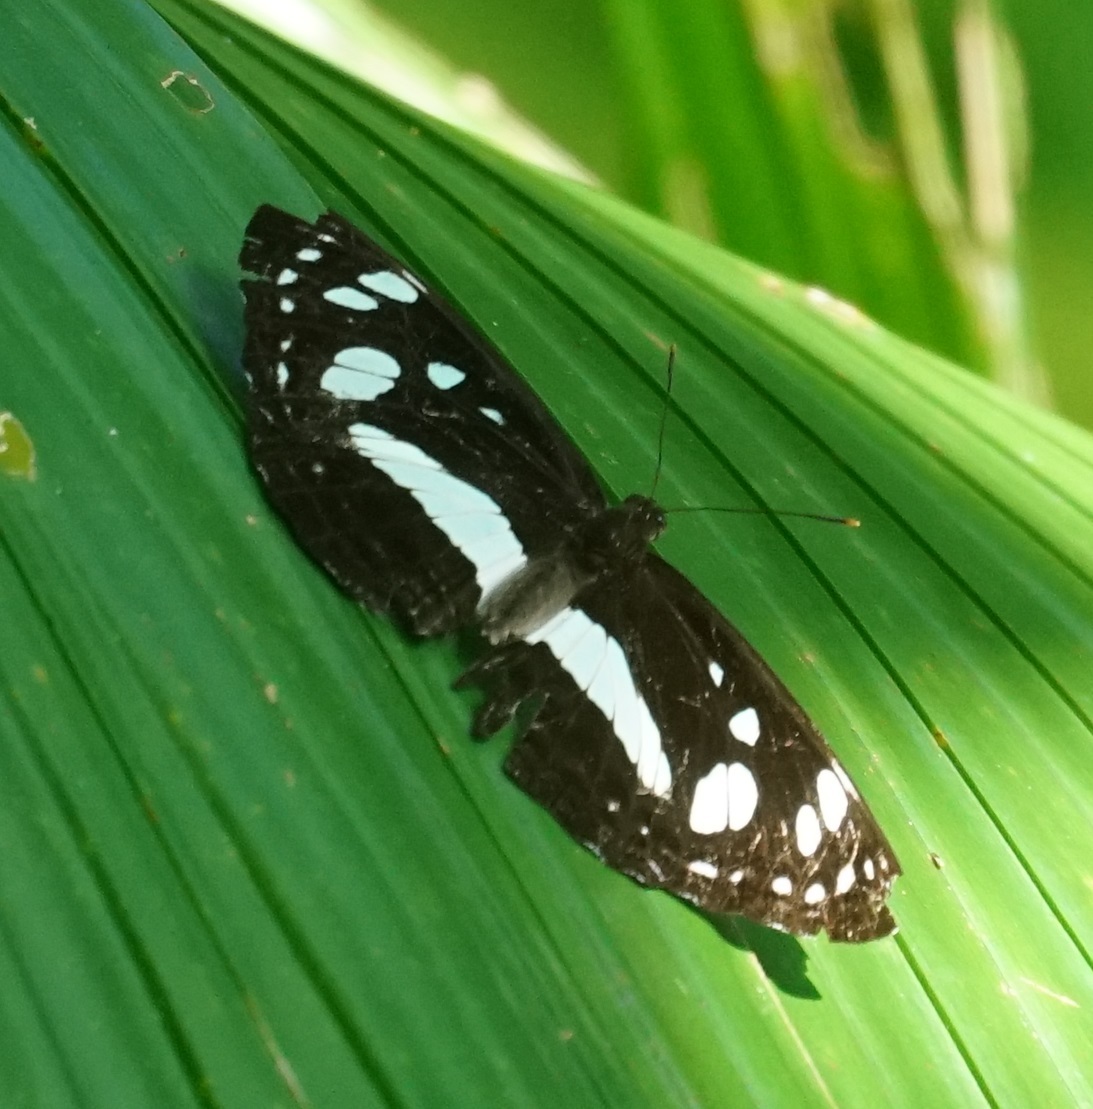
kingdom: Animalia
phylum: Arthropoda
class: Insecta
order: Lepidoptera
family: Nymphalidae
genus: Phaedyma
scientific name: Phaedyma shepherdi
